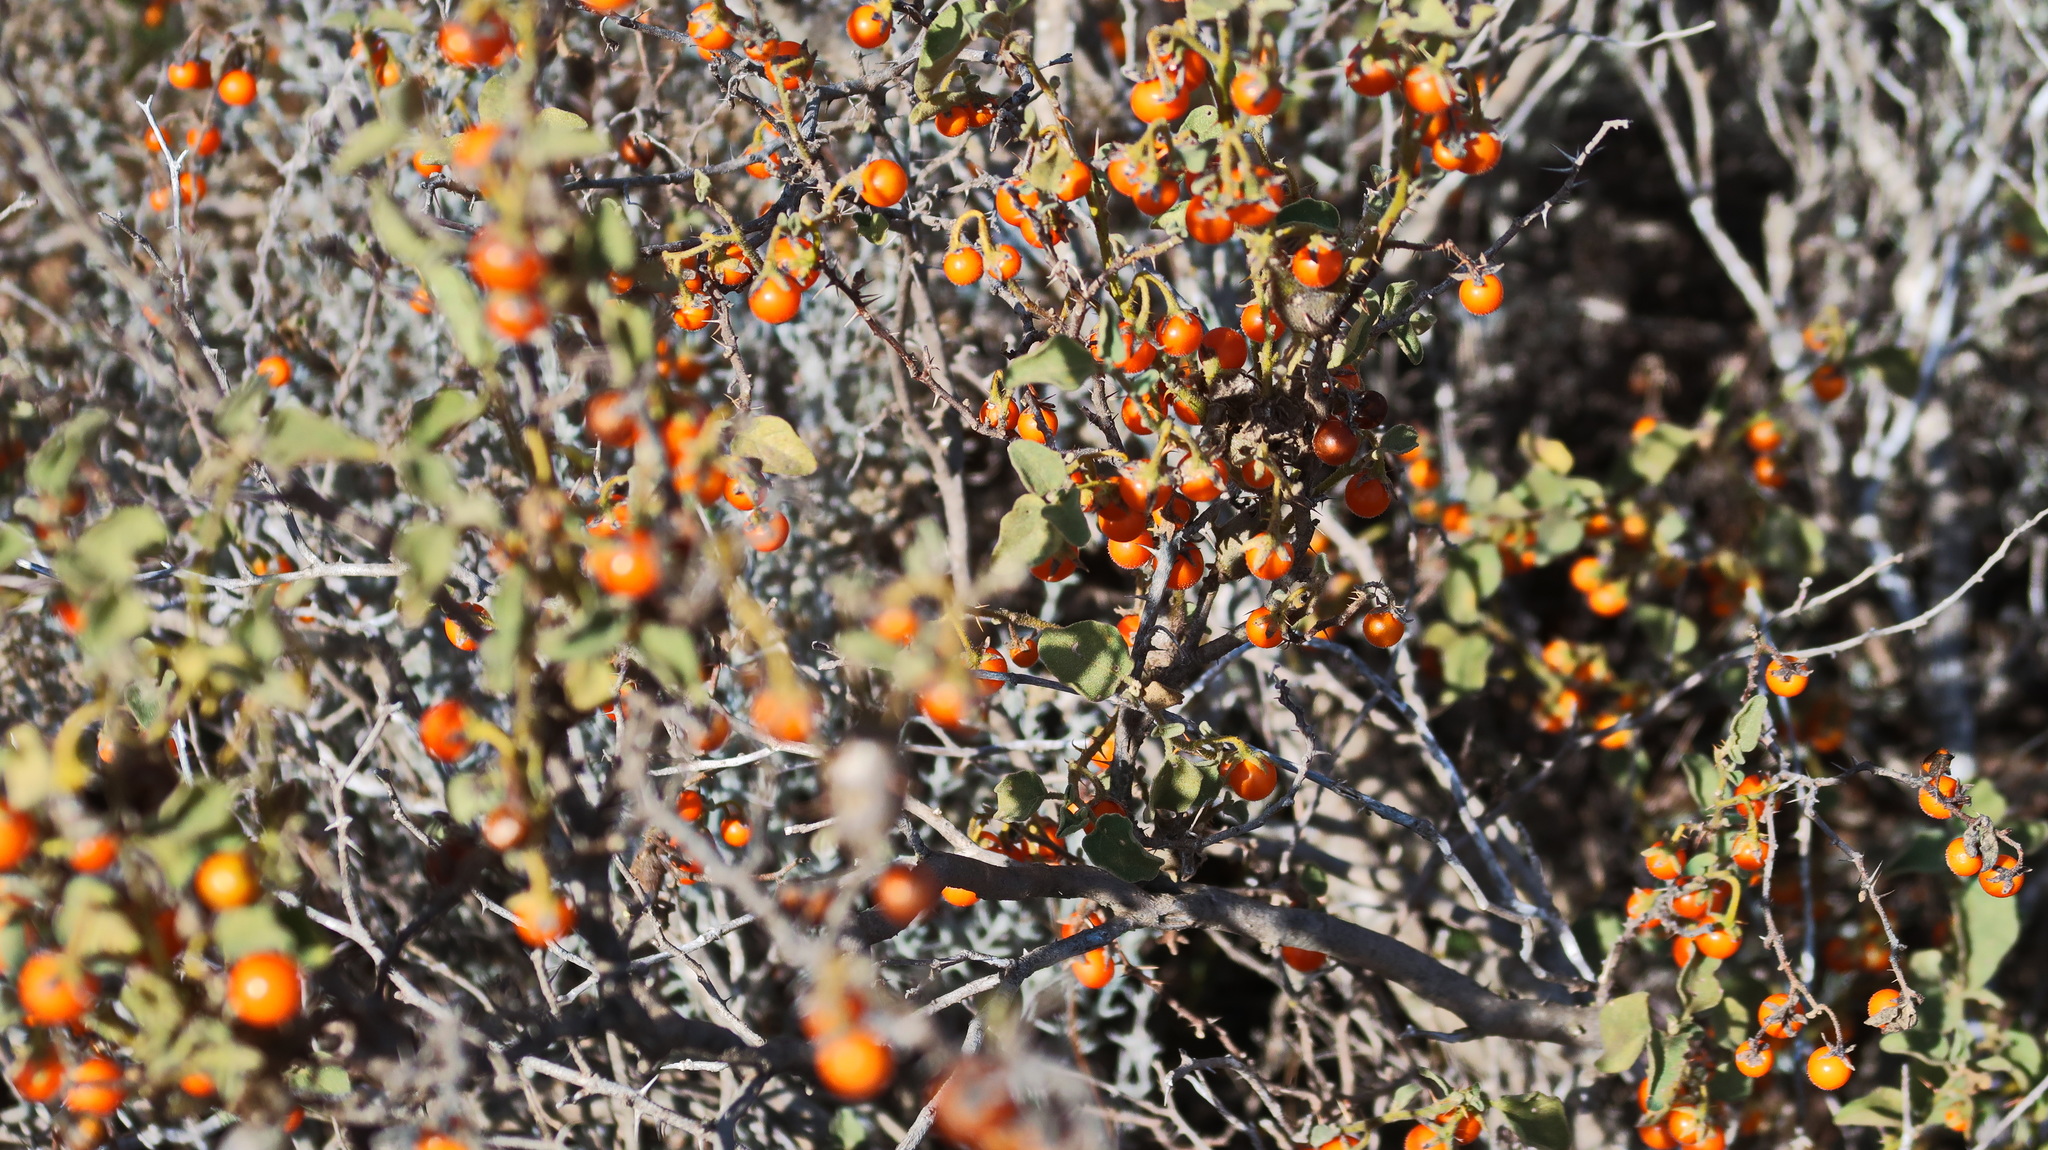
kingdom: Plantae
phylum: Tracheophyta
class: Magnoliopsida
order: Solanales
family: Solanaceae
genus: Solanum
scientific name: Solanum tomentosum
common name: Wild aubergine
